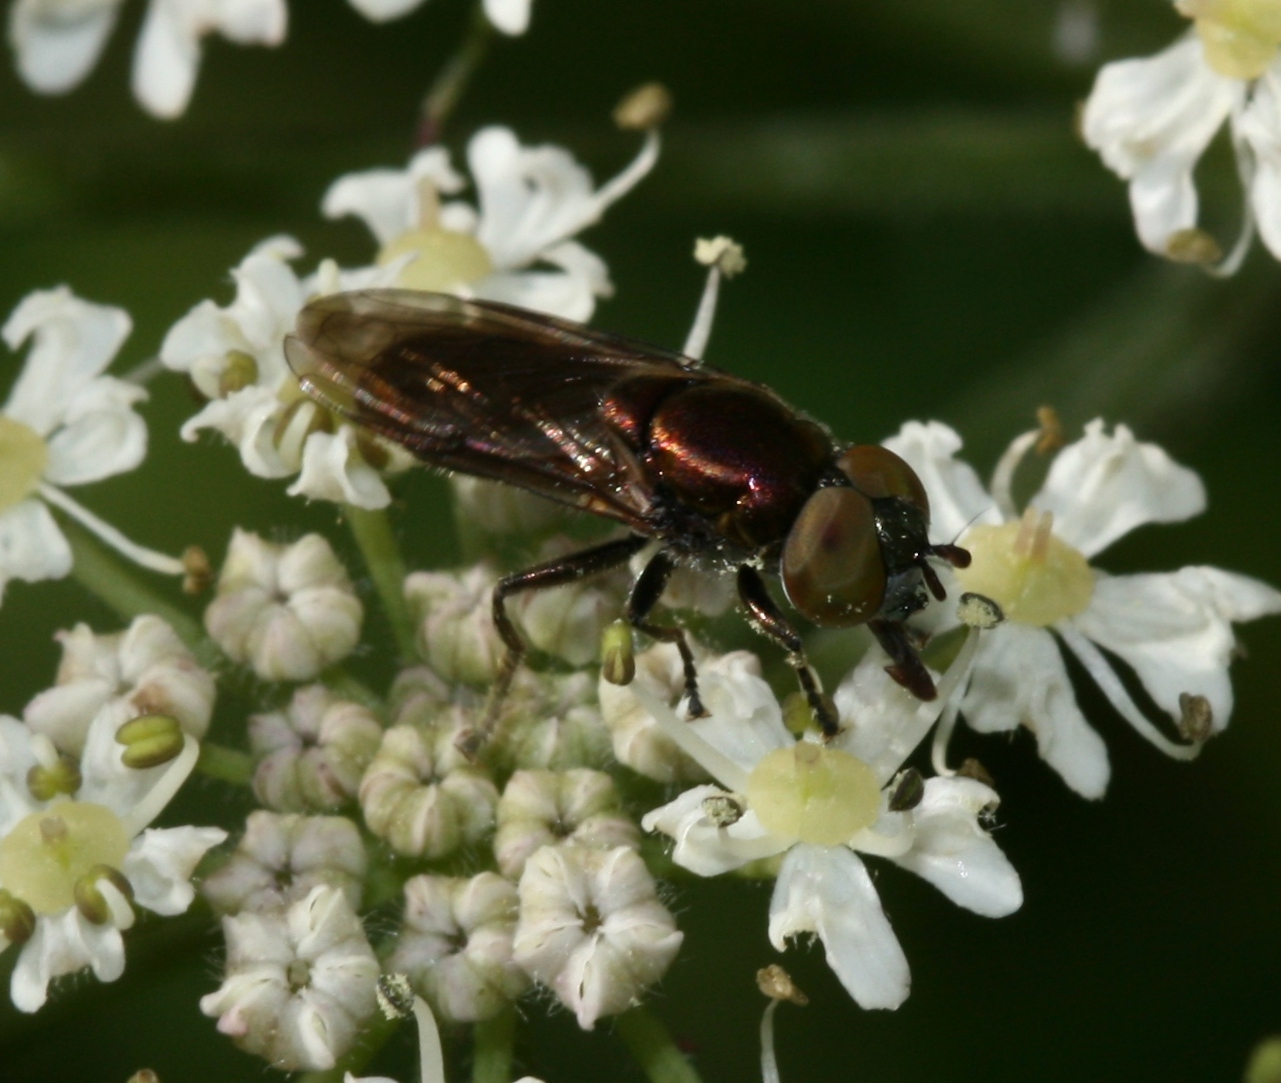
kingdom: Animalia
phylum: Arthropoda
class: Insecta
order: Diptera
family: Syrphidae
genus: Orthonevra
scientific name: Orthonevra splendens
